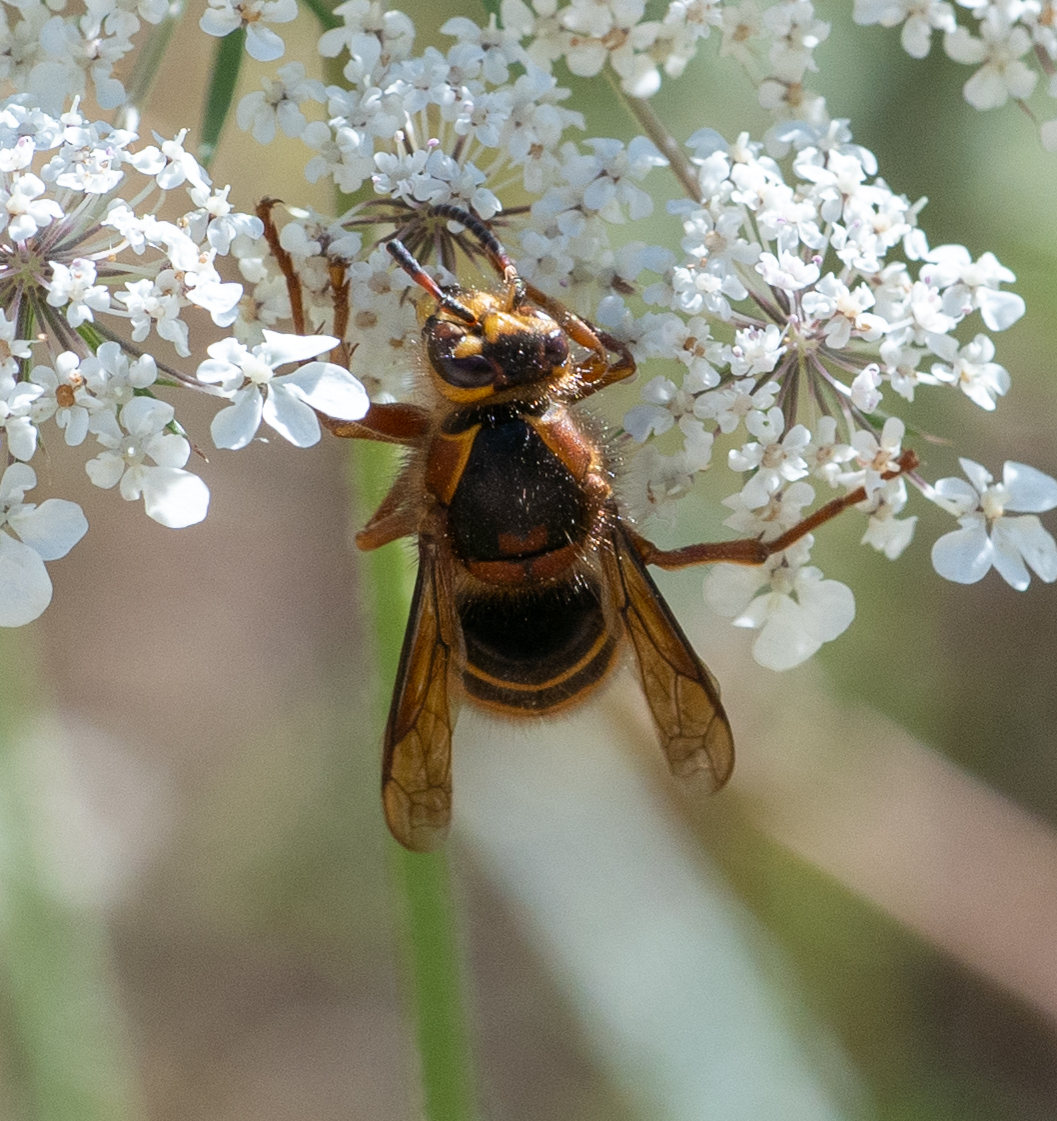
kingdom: Animalia
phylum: Arthropoda
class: Insecta
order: Hymenoptera
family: Vespidae
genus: Dolichovespula
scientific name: Dolichovespula media
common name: Median wasp
